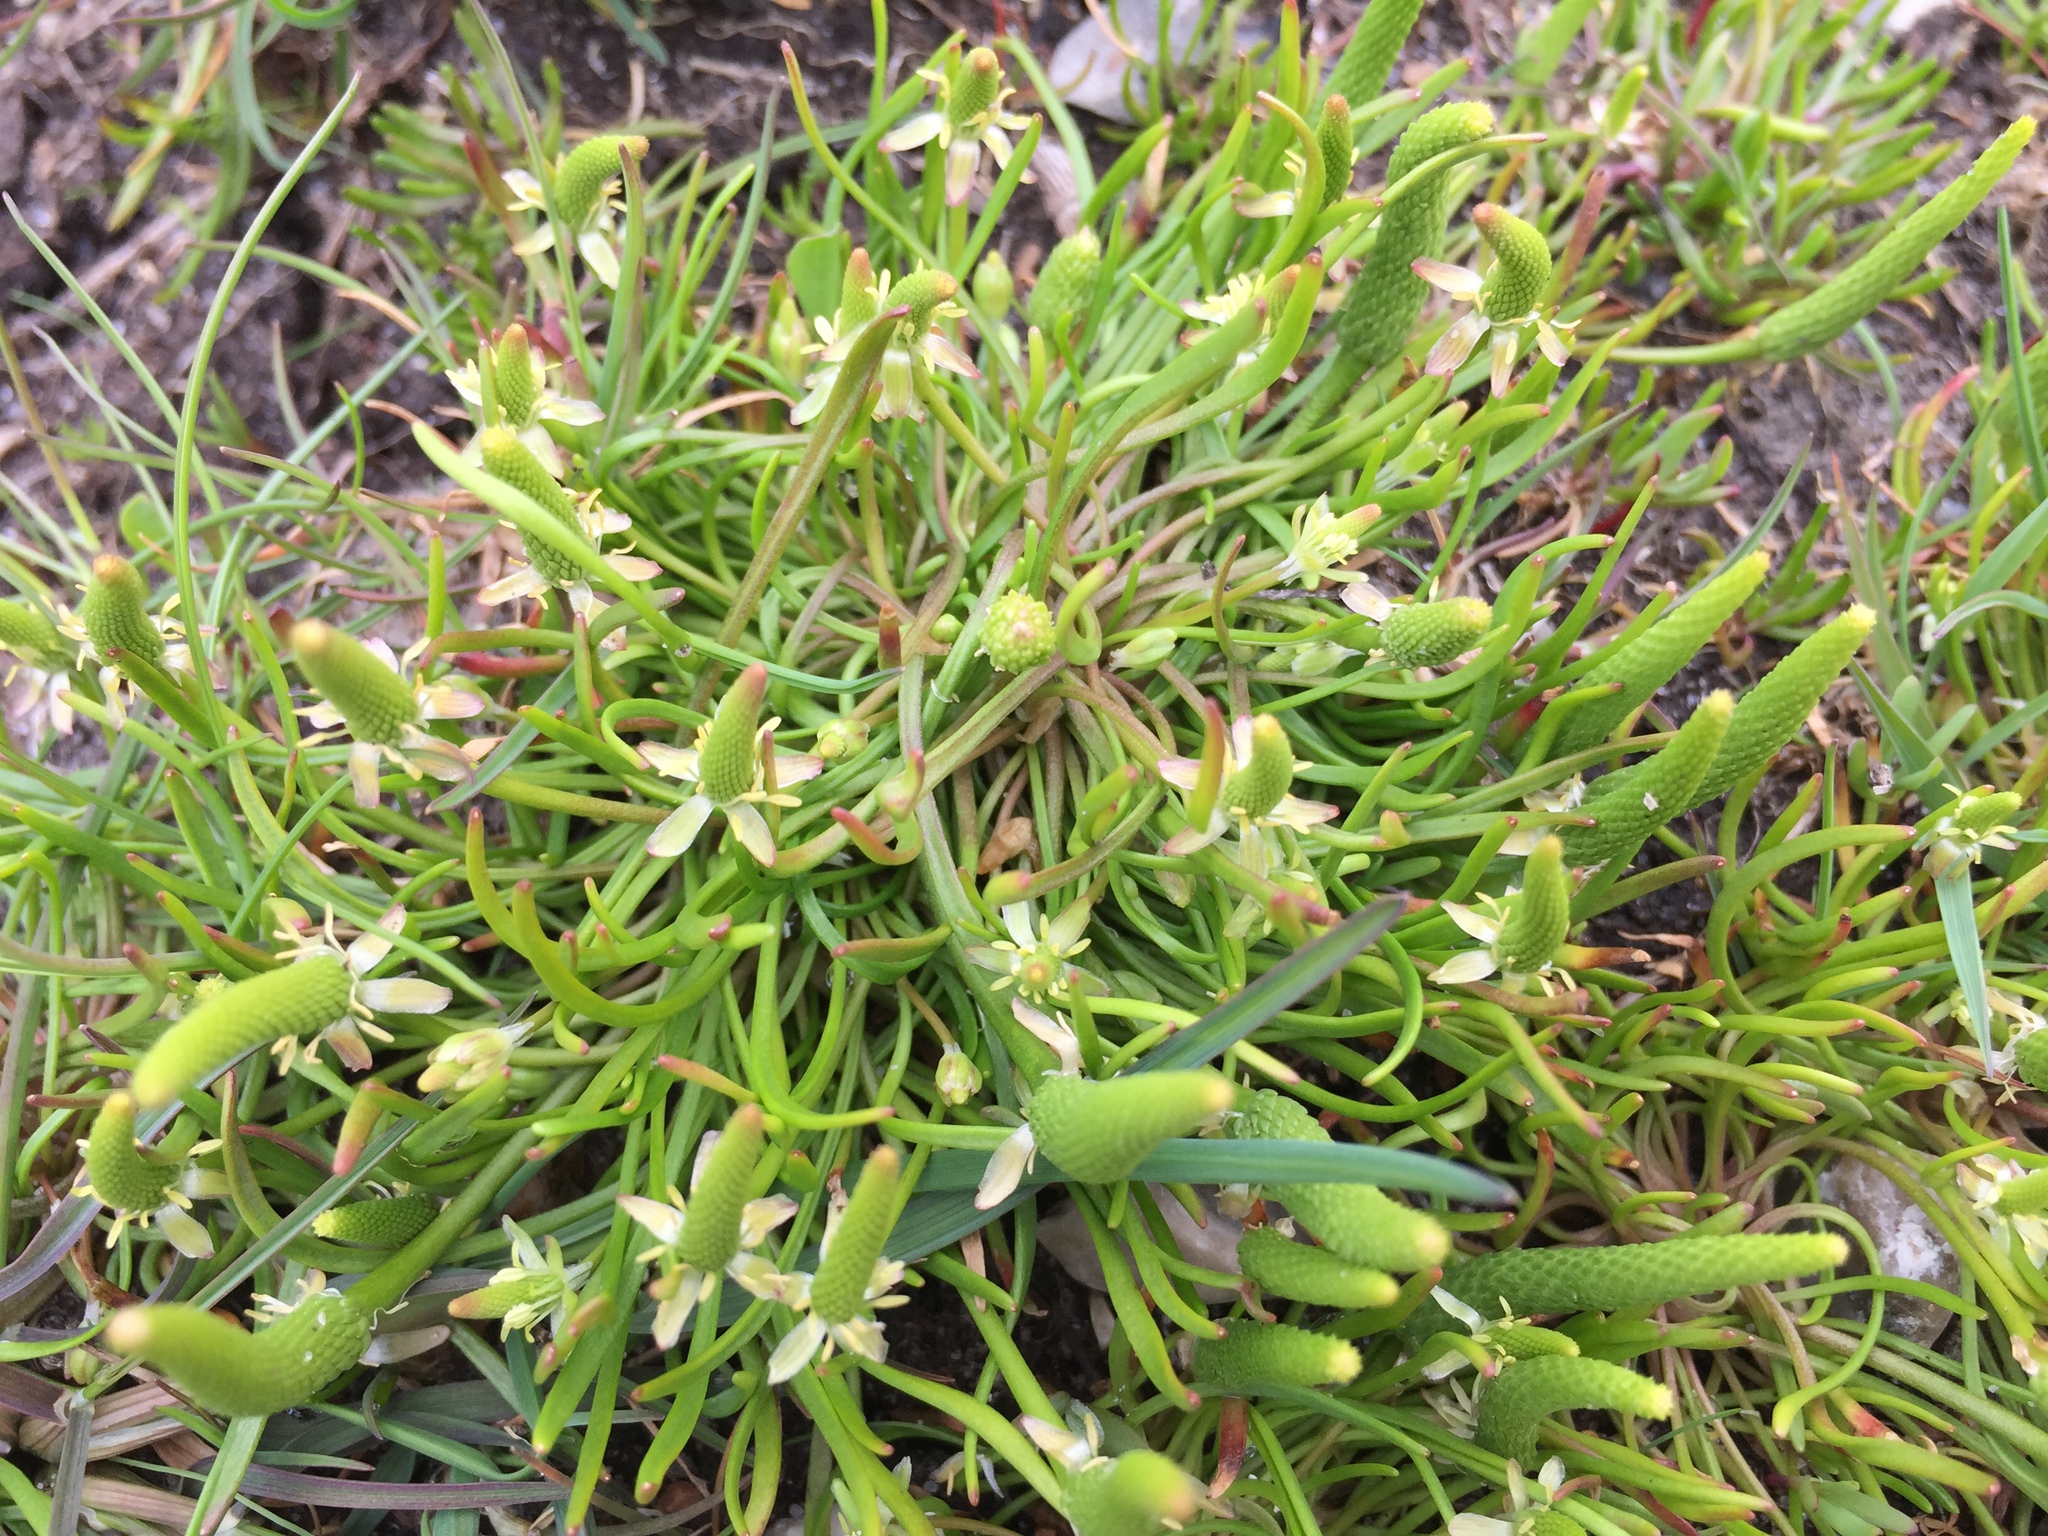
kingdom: Plantae
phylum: Tracheophyta
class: Magnoliopsida
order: Ranunculales
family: Ranunculaceae
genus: Myosurus
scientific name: Myosurus minimus
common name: Mousetail
